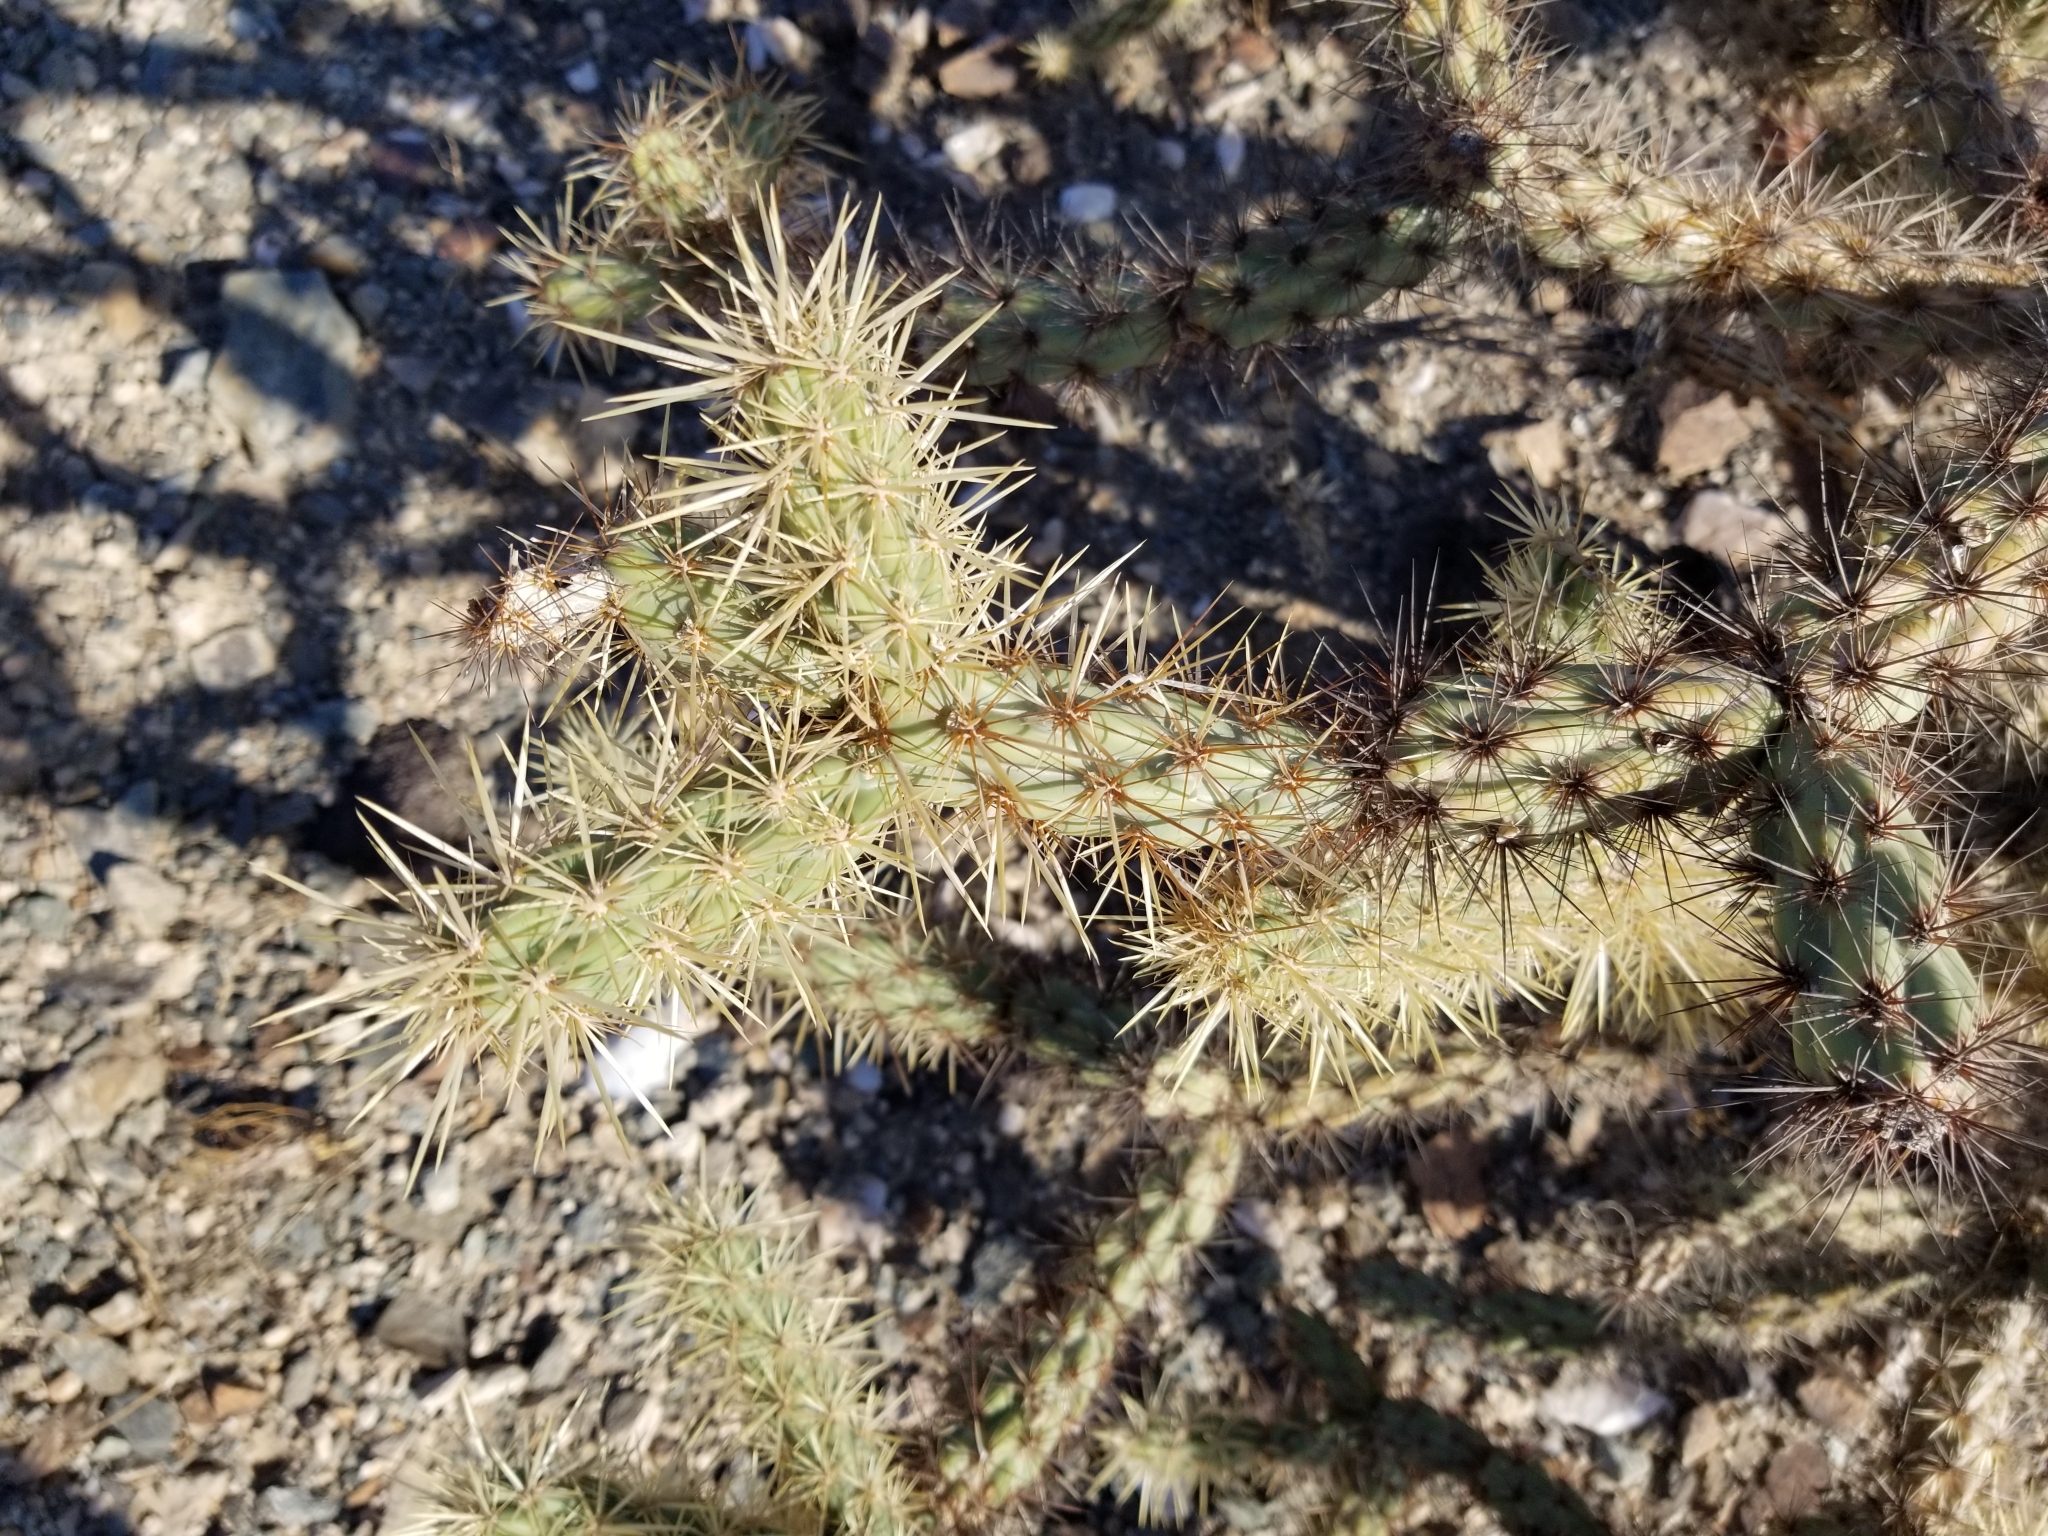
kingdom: Plantae
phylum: Tracheophyta
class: Magnoliopsida
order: Caryophyllales
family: Cactaceae
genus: Cylindropuntia
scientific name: Cylindropuntia acanthocarpa
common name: Buckhorn cholla
